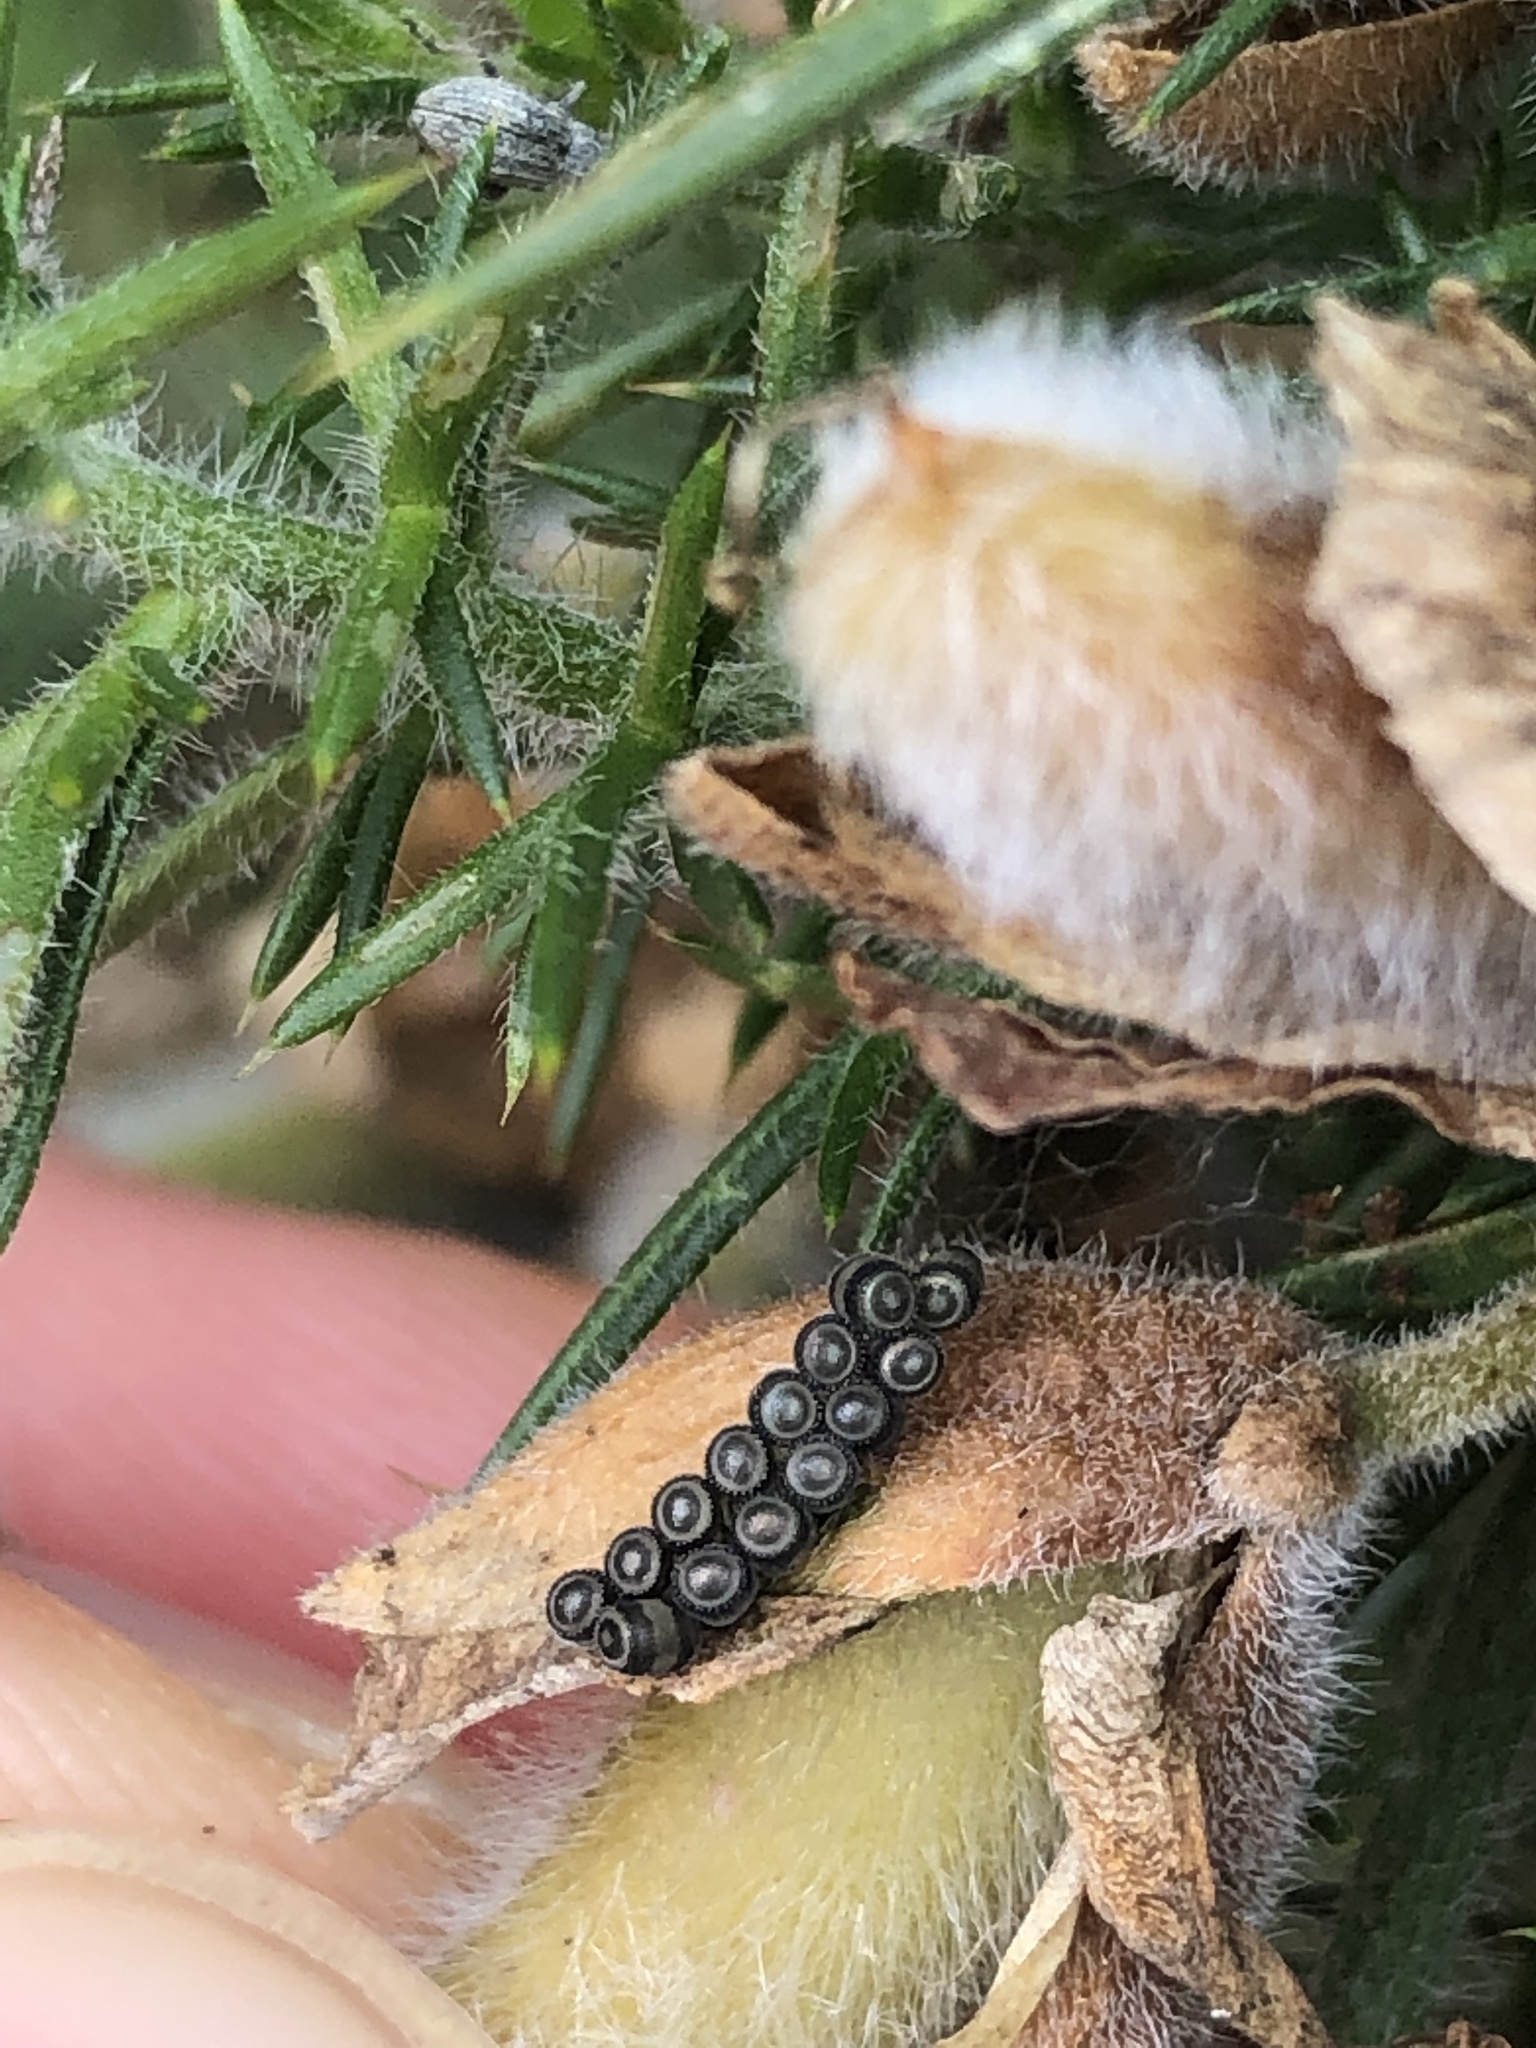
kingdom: Animalia
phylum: Arthropoda
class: Insecta
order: Hemiptera
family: Pentatomidae
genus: Piezodorus
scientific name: Piezodorus lituratus
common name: Stink bug
